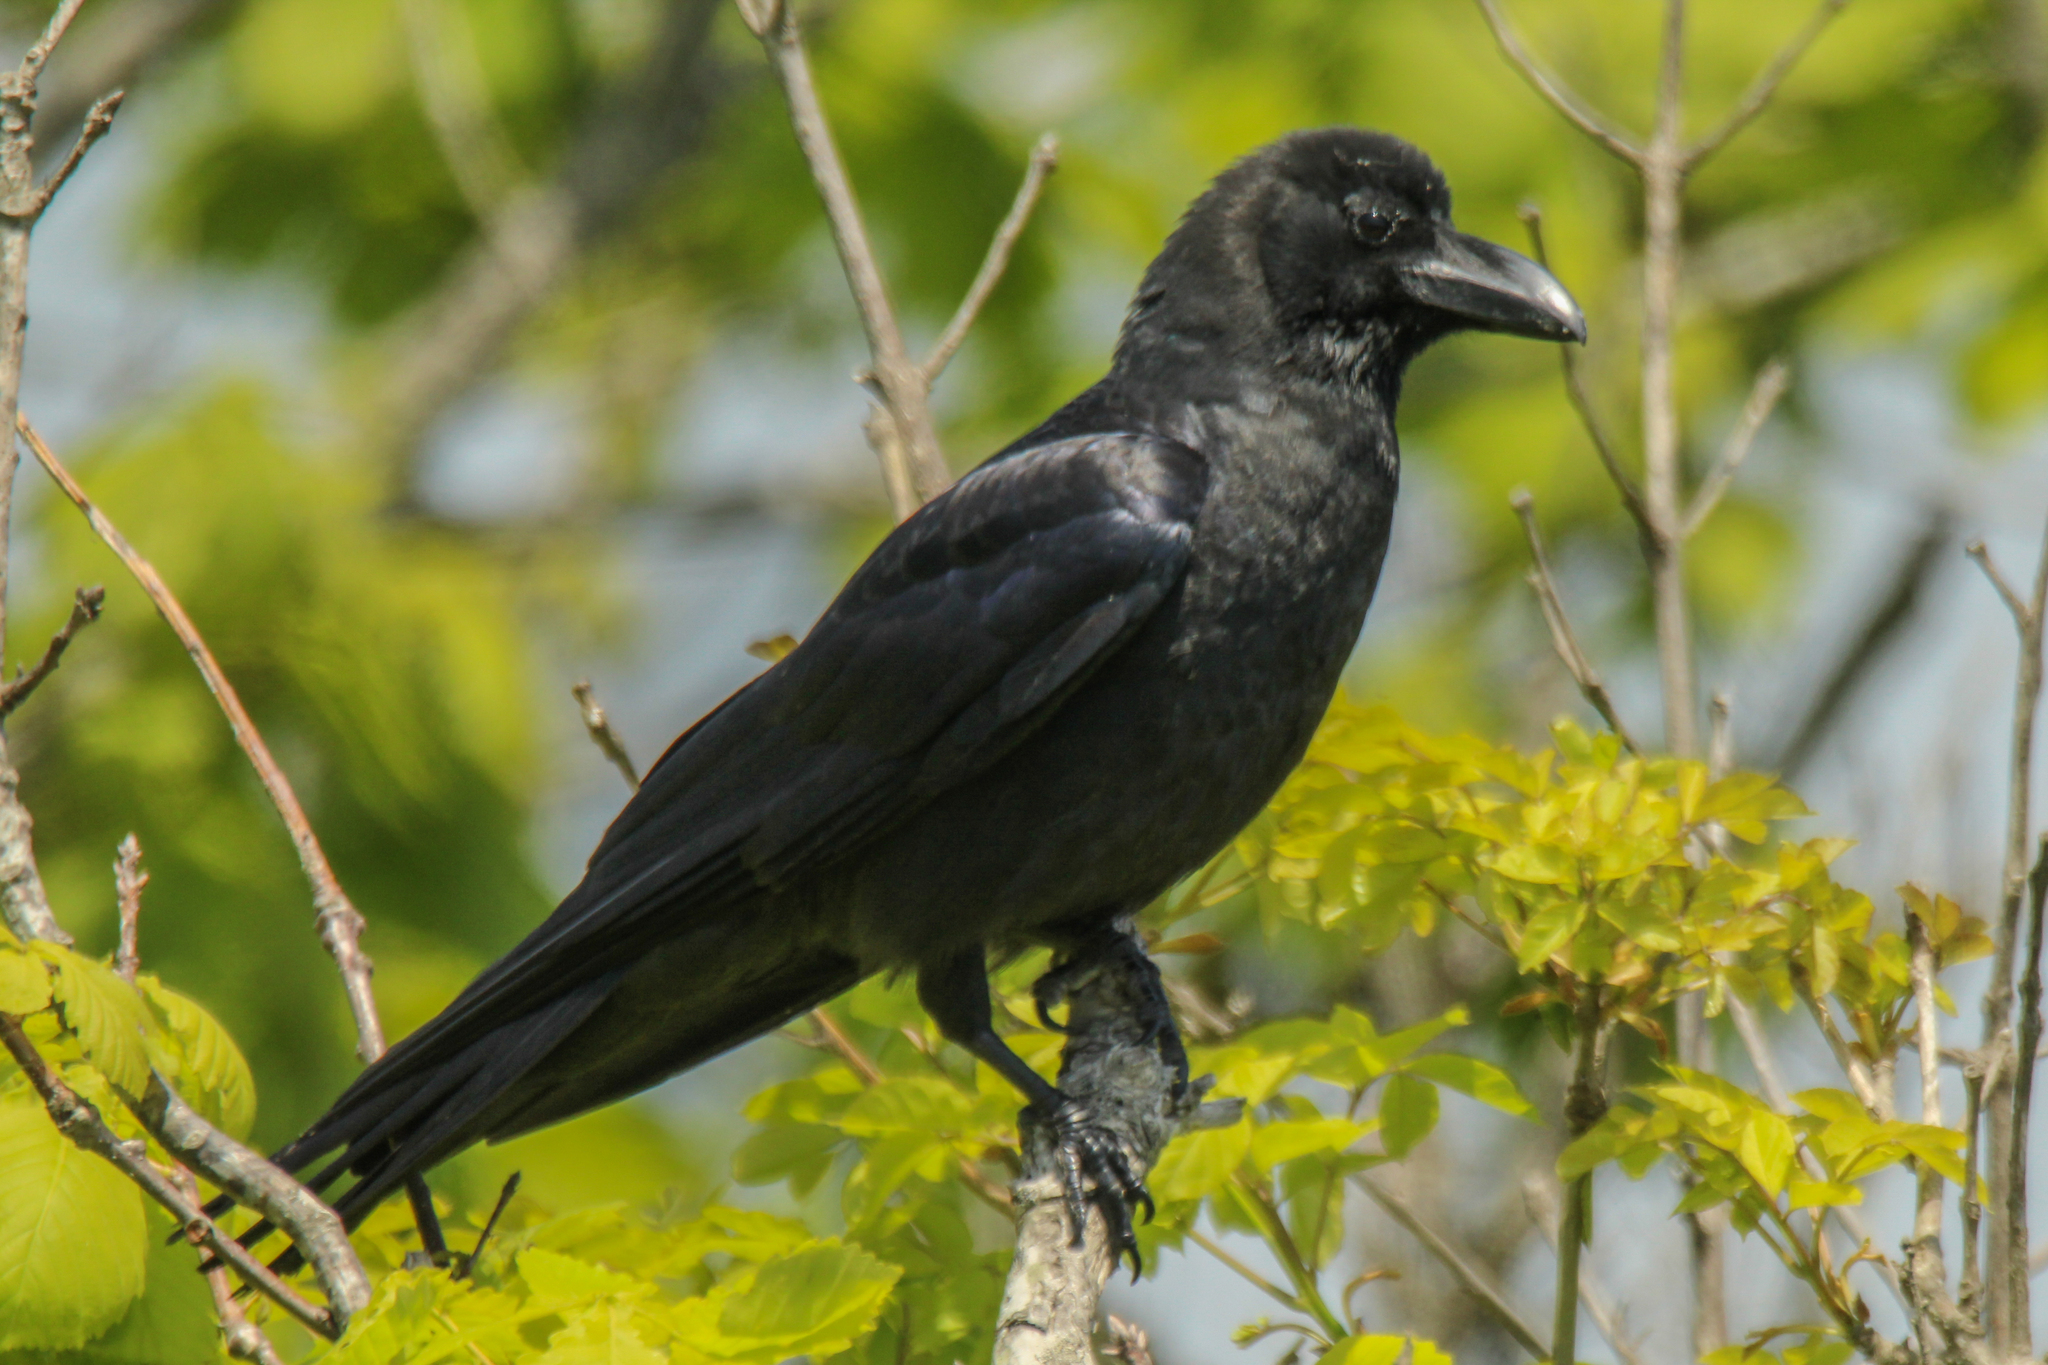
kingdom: Animalia
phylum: Chordata
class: Aves
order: Passeriformes
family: Corvidae
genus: Corvus
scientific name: Corvus macrorhynchos
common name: Large-billed crow
